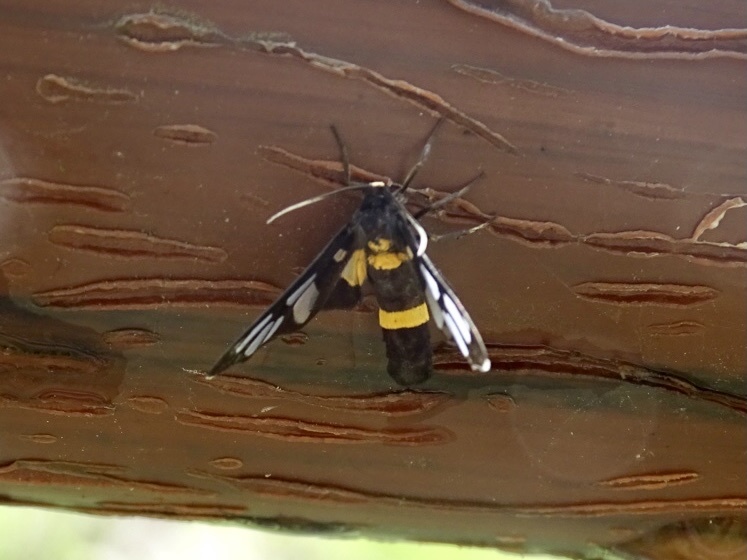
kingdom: Animalia
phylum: Arthropoda
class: Insecta
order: Lepidoptera
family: Erebidae
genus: Amata
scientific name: Amata sperbius
